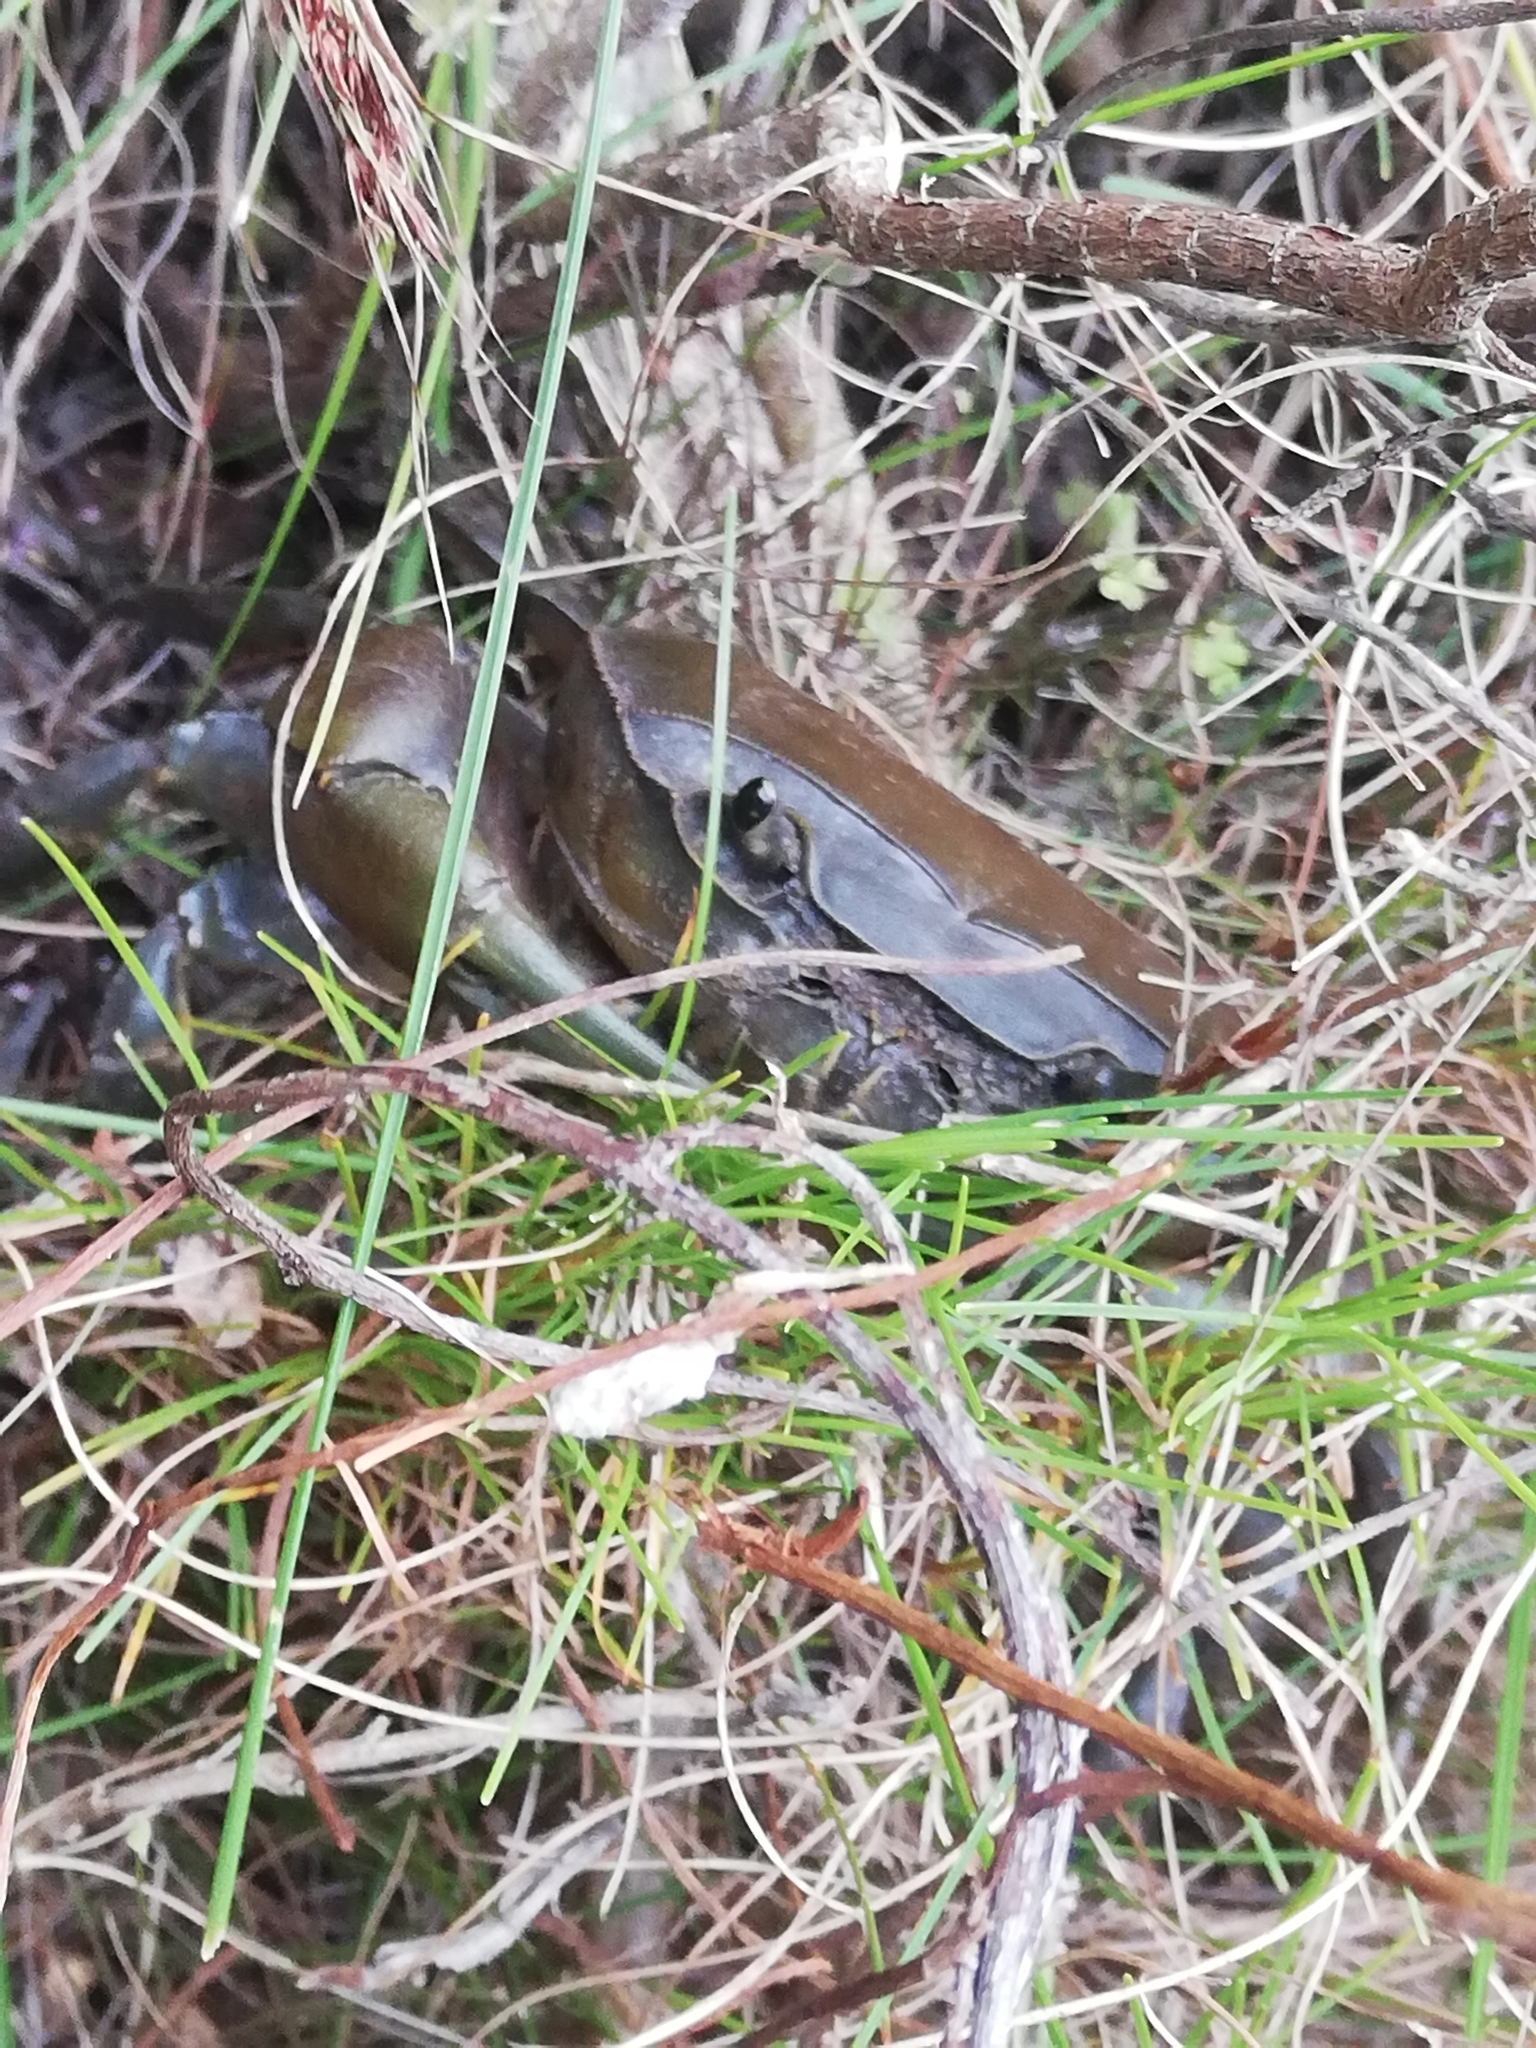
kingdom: Animalia
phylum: Arthropoda
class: Malacostraca
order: Decapoda
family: Potamonautidae
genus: Potamonautes
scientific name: Potamonautes perlatus
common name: Cape river crab
